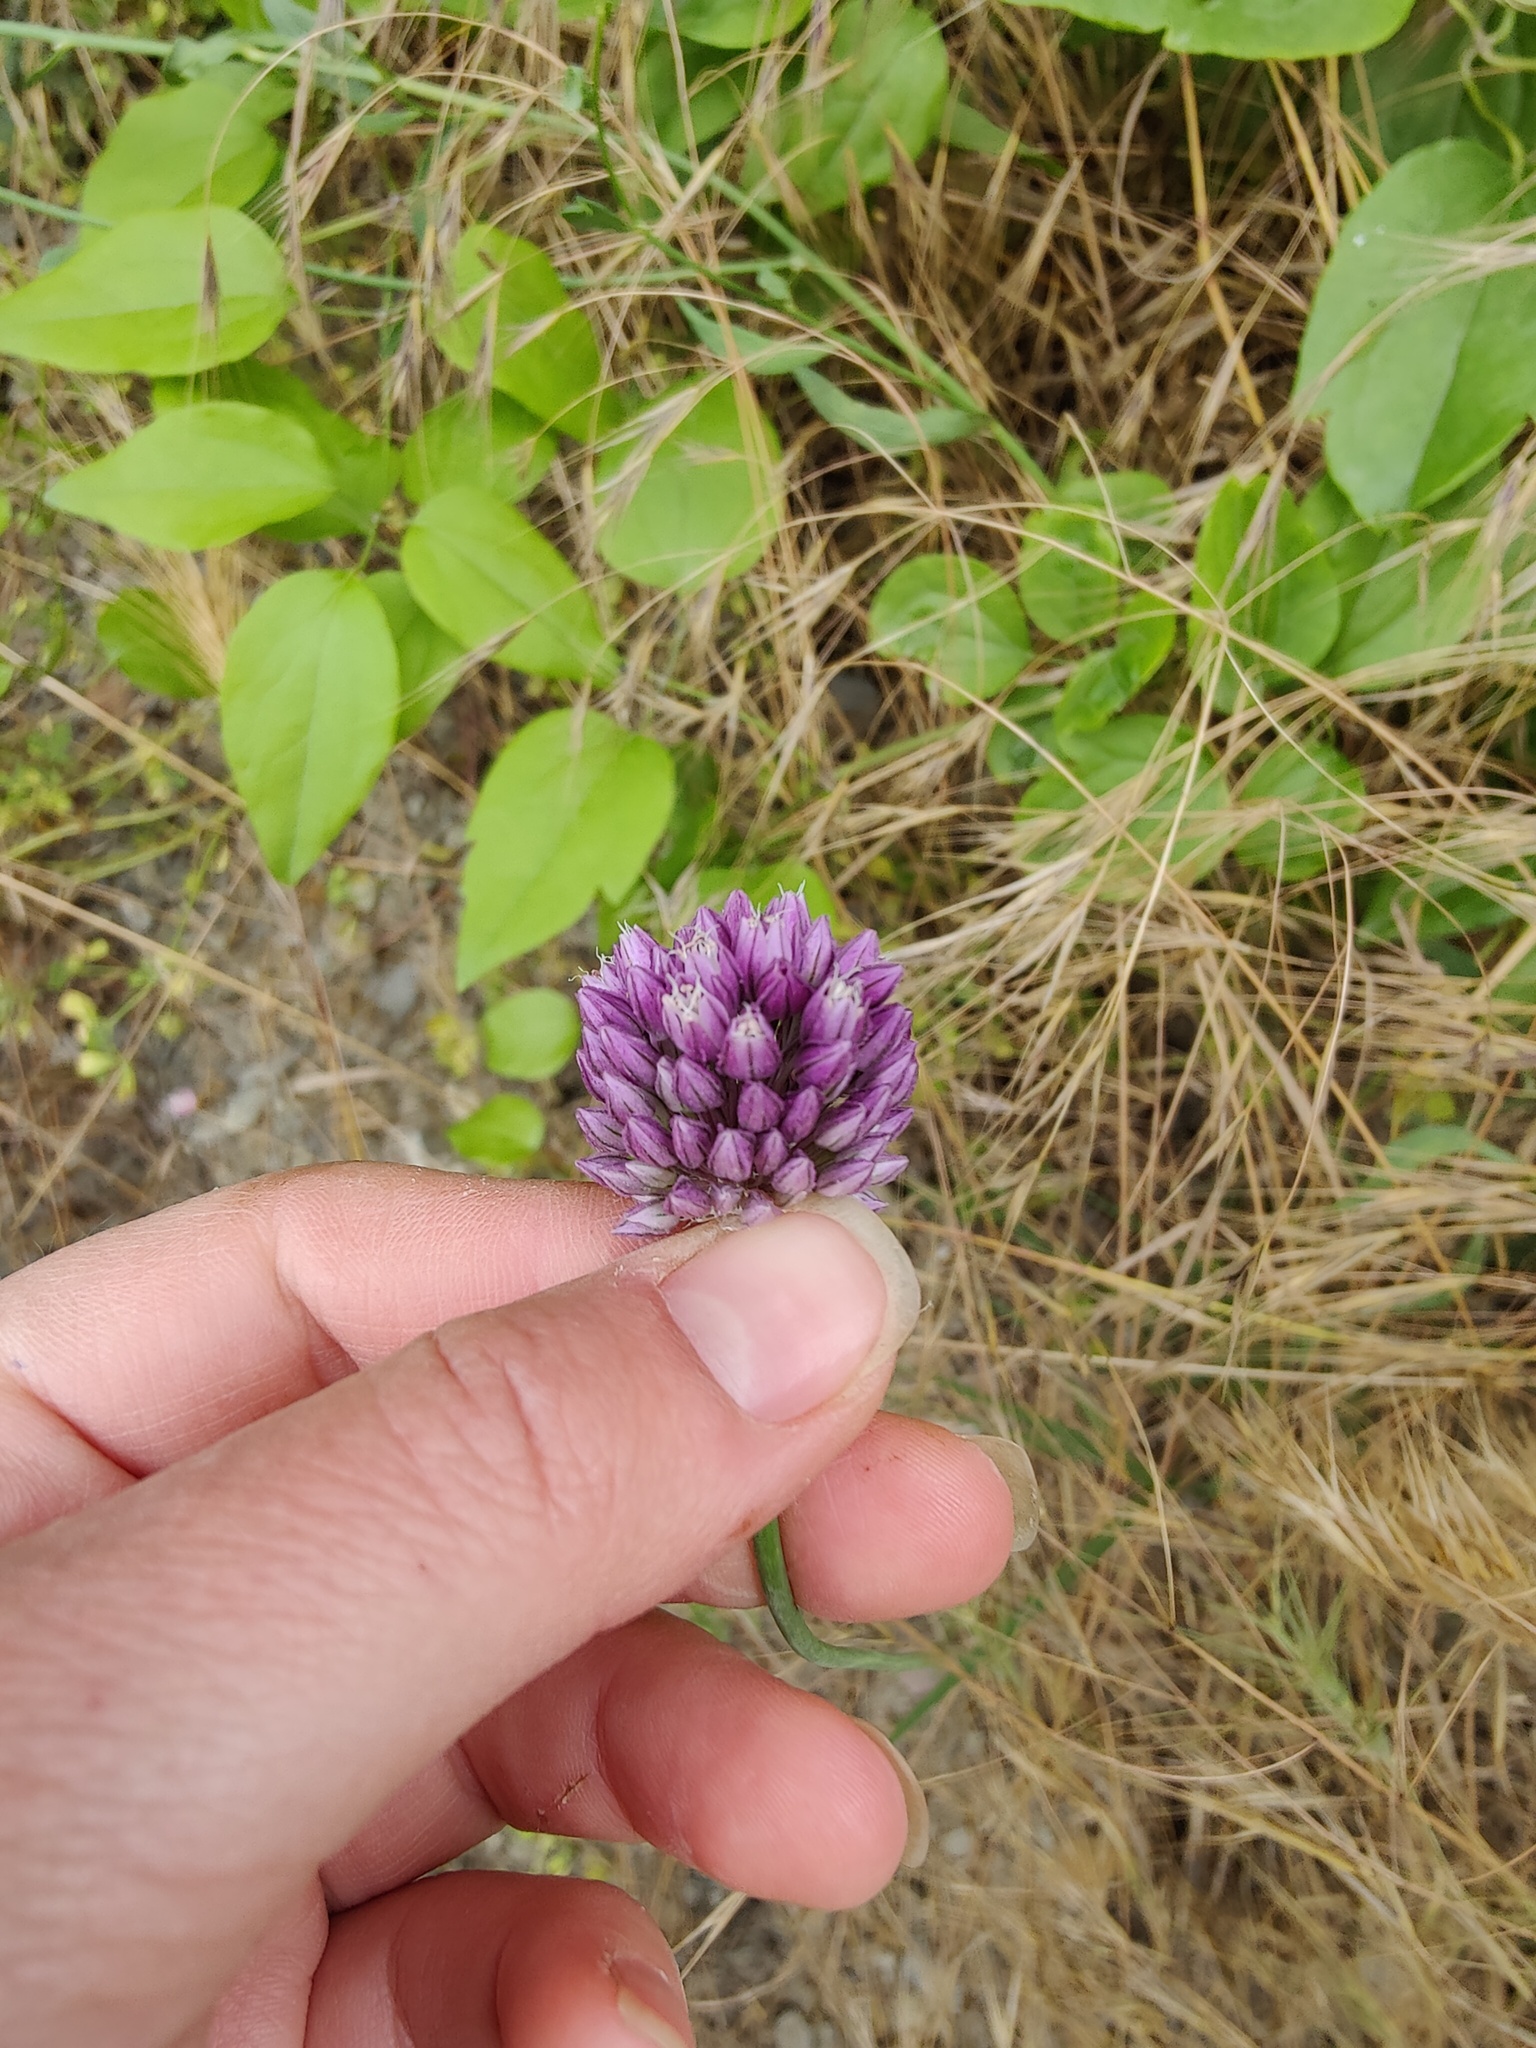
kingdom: Plantae
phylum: Tracheophyta
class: Liliopsida
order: Asparagales
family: Amaryllidaceae
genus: Allium
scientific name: Allium rotundum
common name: Sand leek
